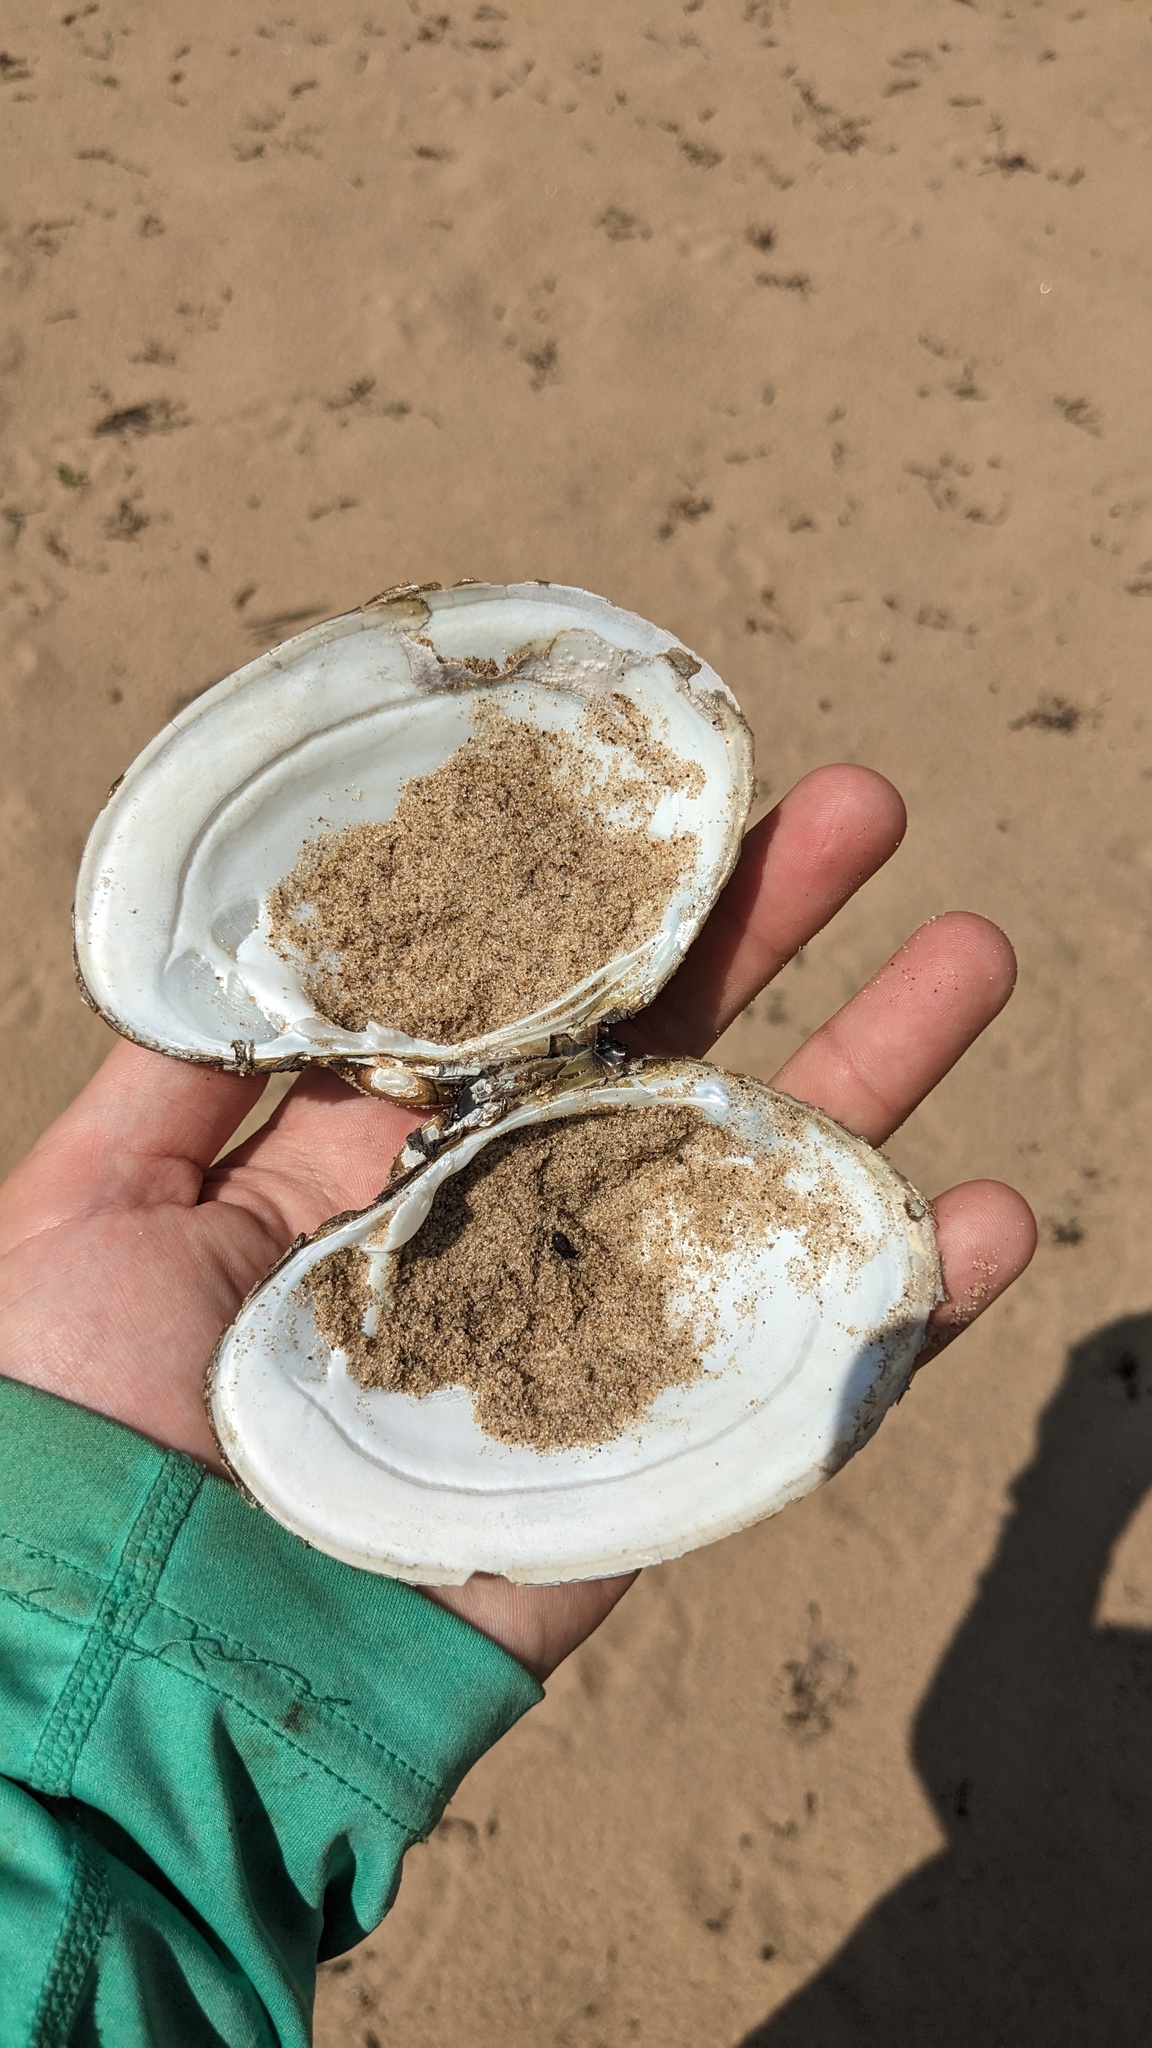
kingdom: Animalia
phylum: Mollusca
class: Bivalvia
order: Unionida
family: Unionidae
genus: Lampsilis
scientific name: Lampsilis cardium
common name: Plain pocketbook
